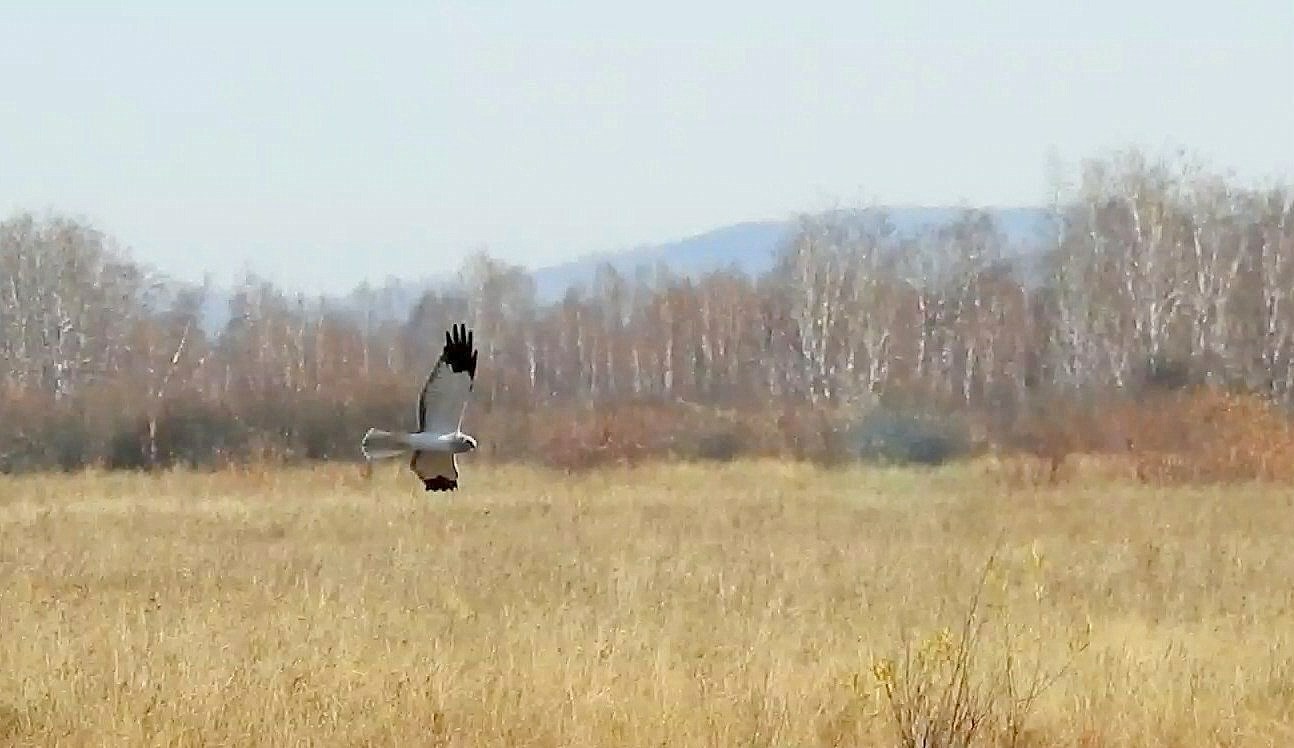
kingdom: Animalia
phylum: Chordata
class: Aves
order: Accipitriformes
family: Accipitridae
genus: Circus
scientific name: Circus cyaneus
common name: Hen harrier
